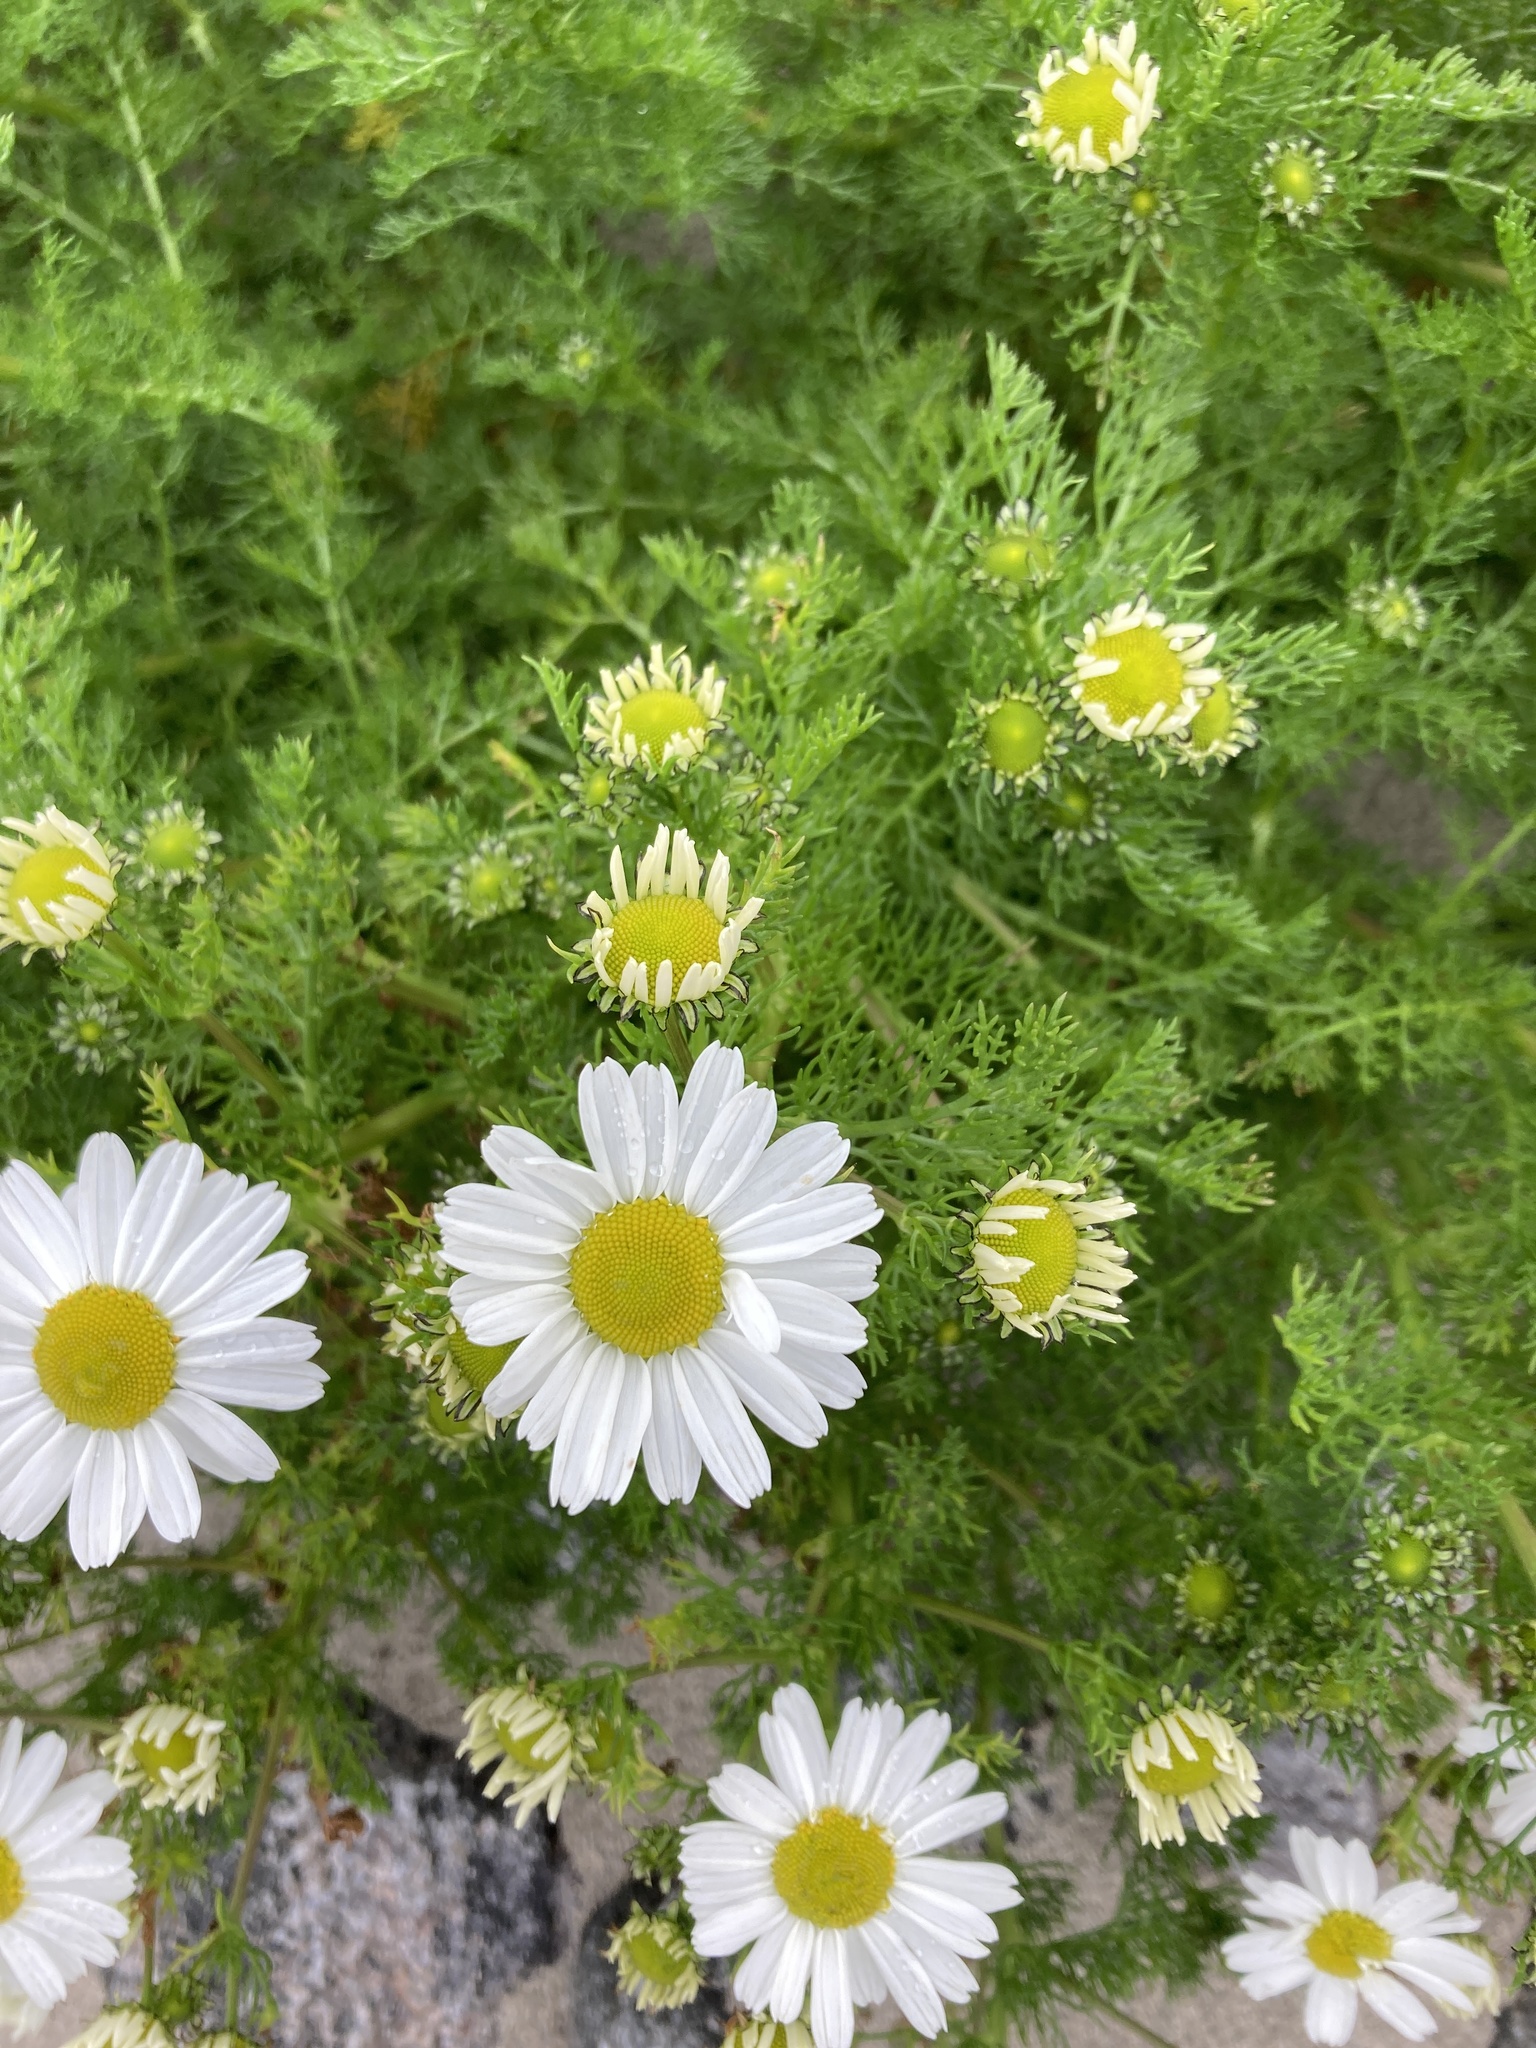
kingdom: Plantae
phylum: Tracheophyta
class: Magnoliopsida
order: Asterales
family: Asteraceae
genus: Tripleurospermum
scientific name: Tripleurospermum maritimum
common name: Sea mayweed
